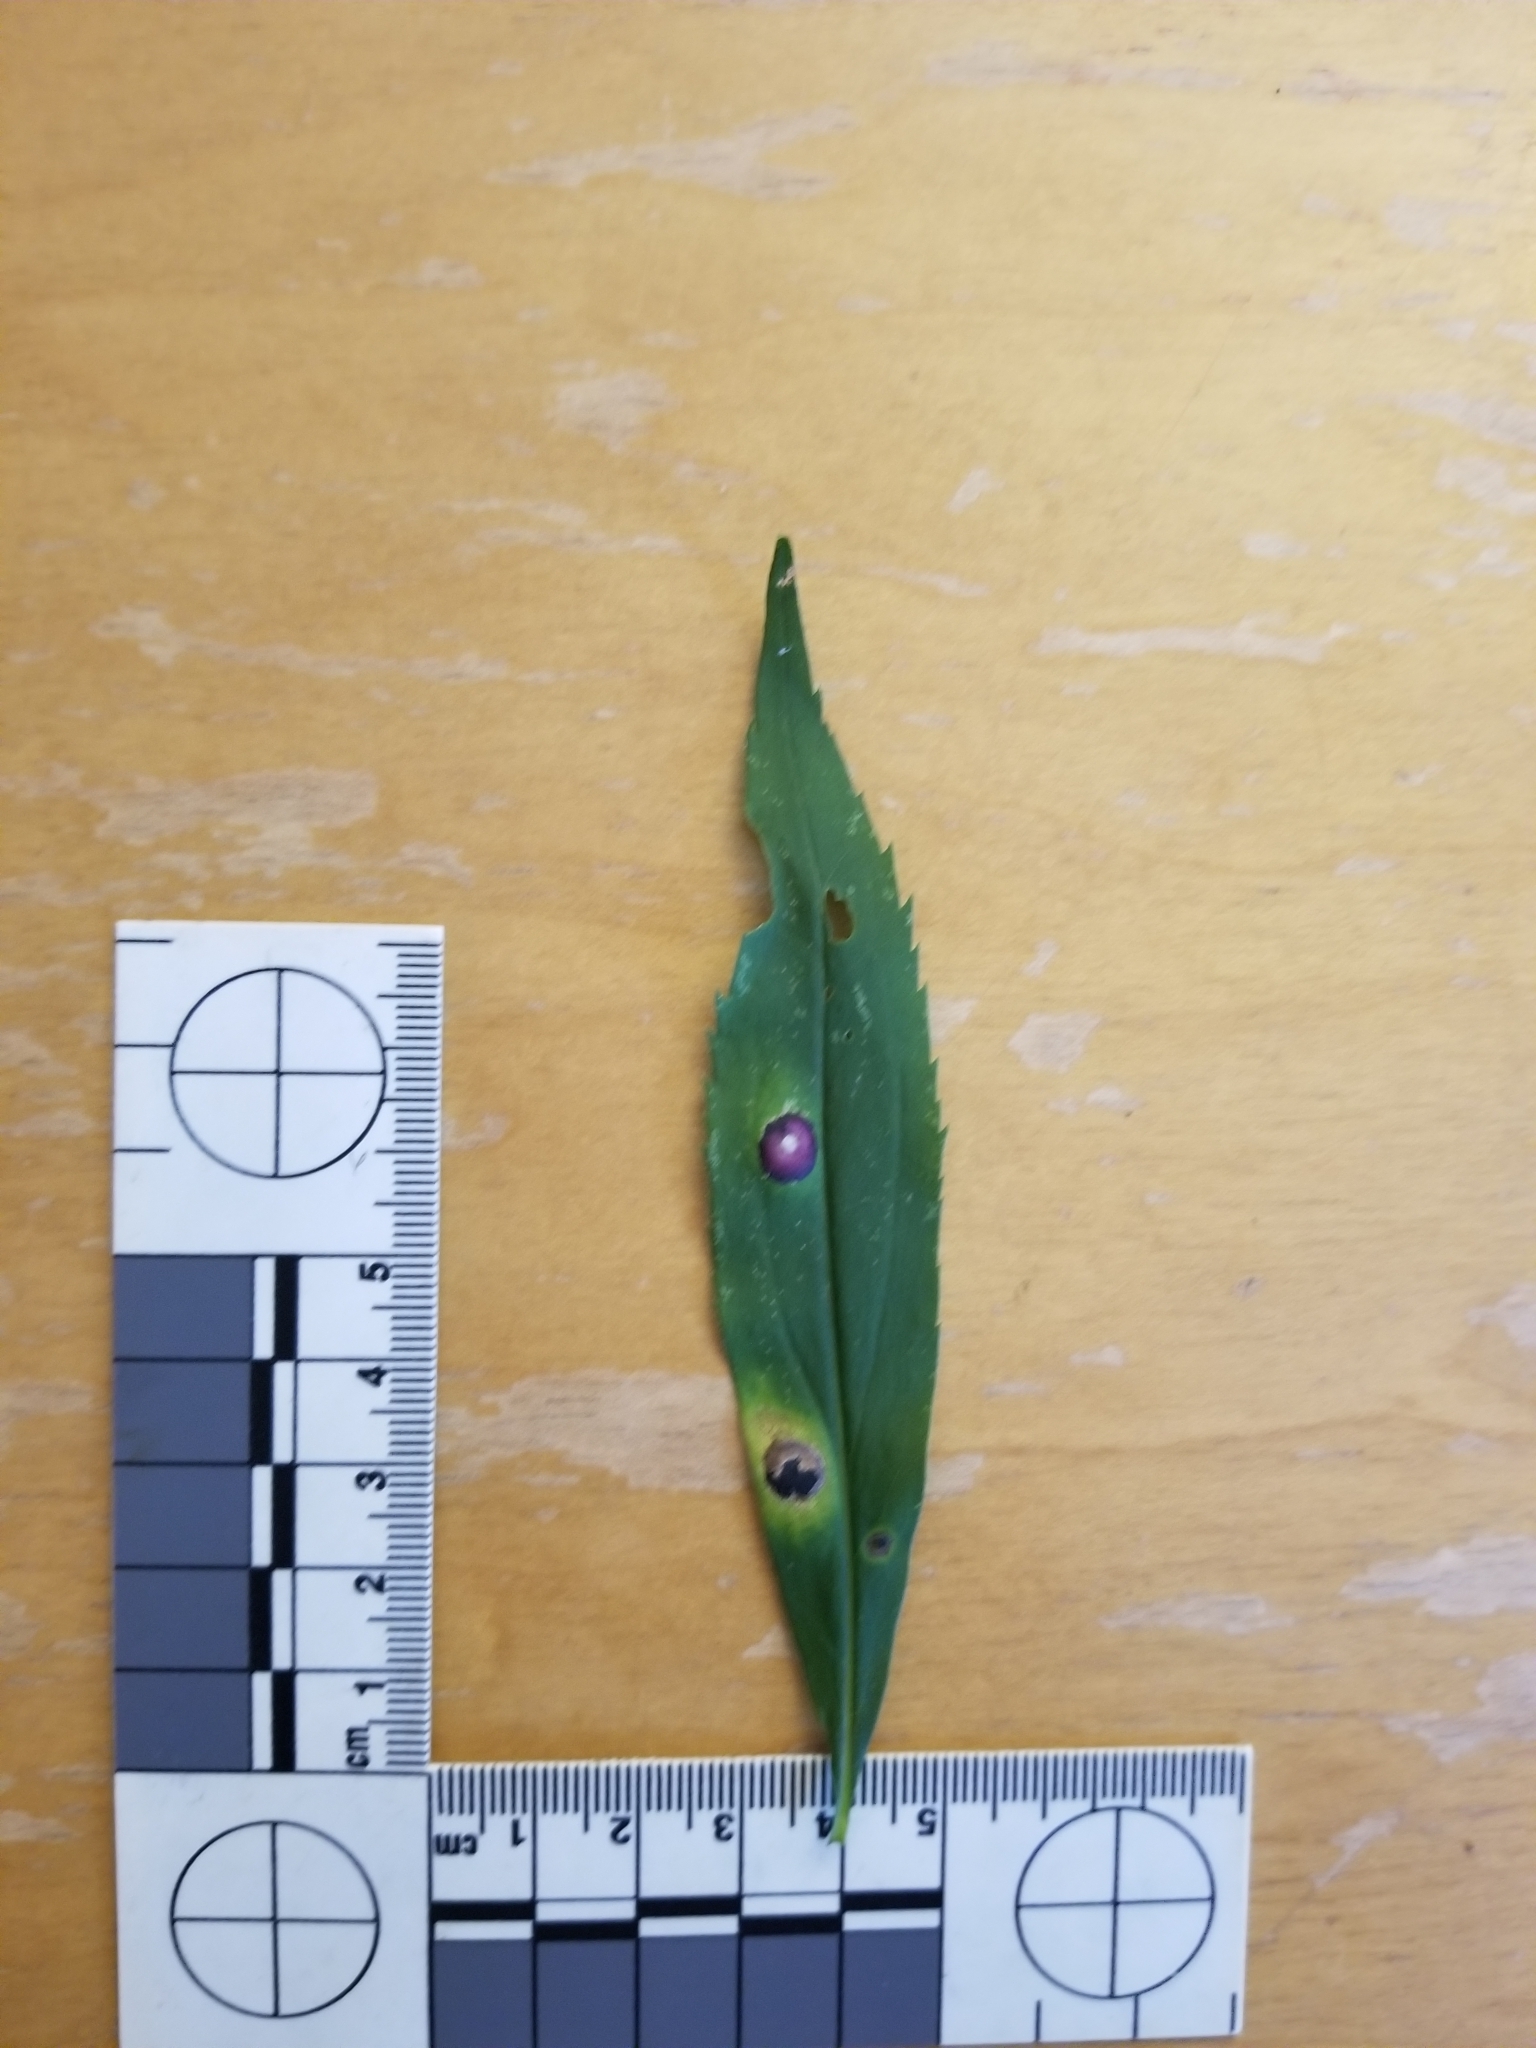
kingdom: Animalia
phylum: Arthropoda
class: Insecta
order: Diptera
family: Cecidomyiidae
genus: Asteromyia
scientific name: Asteromyia carbonifera
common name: Carbonifera goldenrod gall midge
